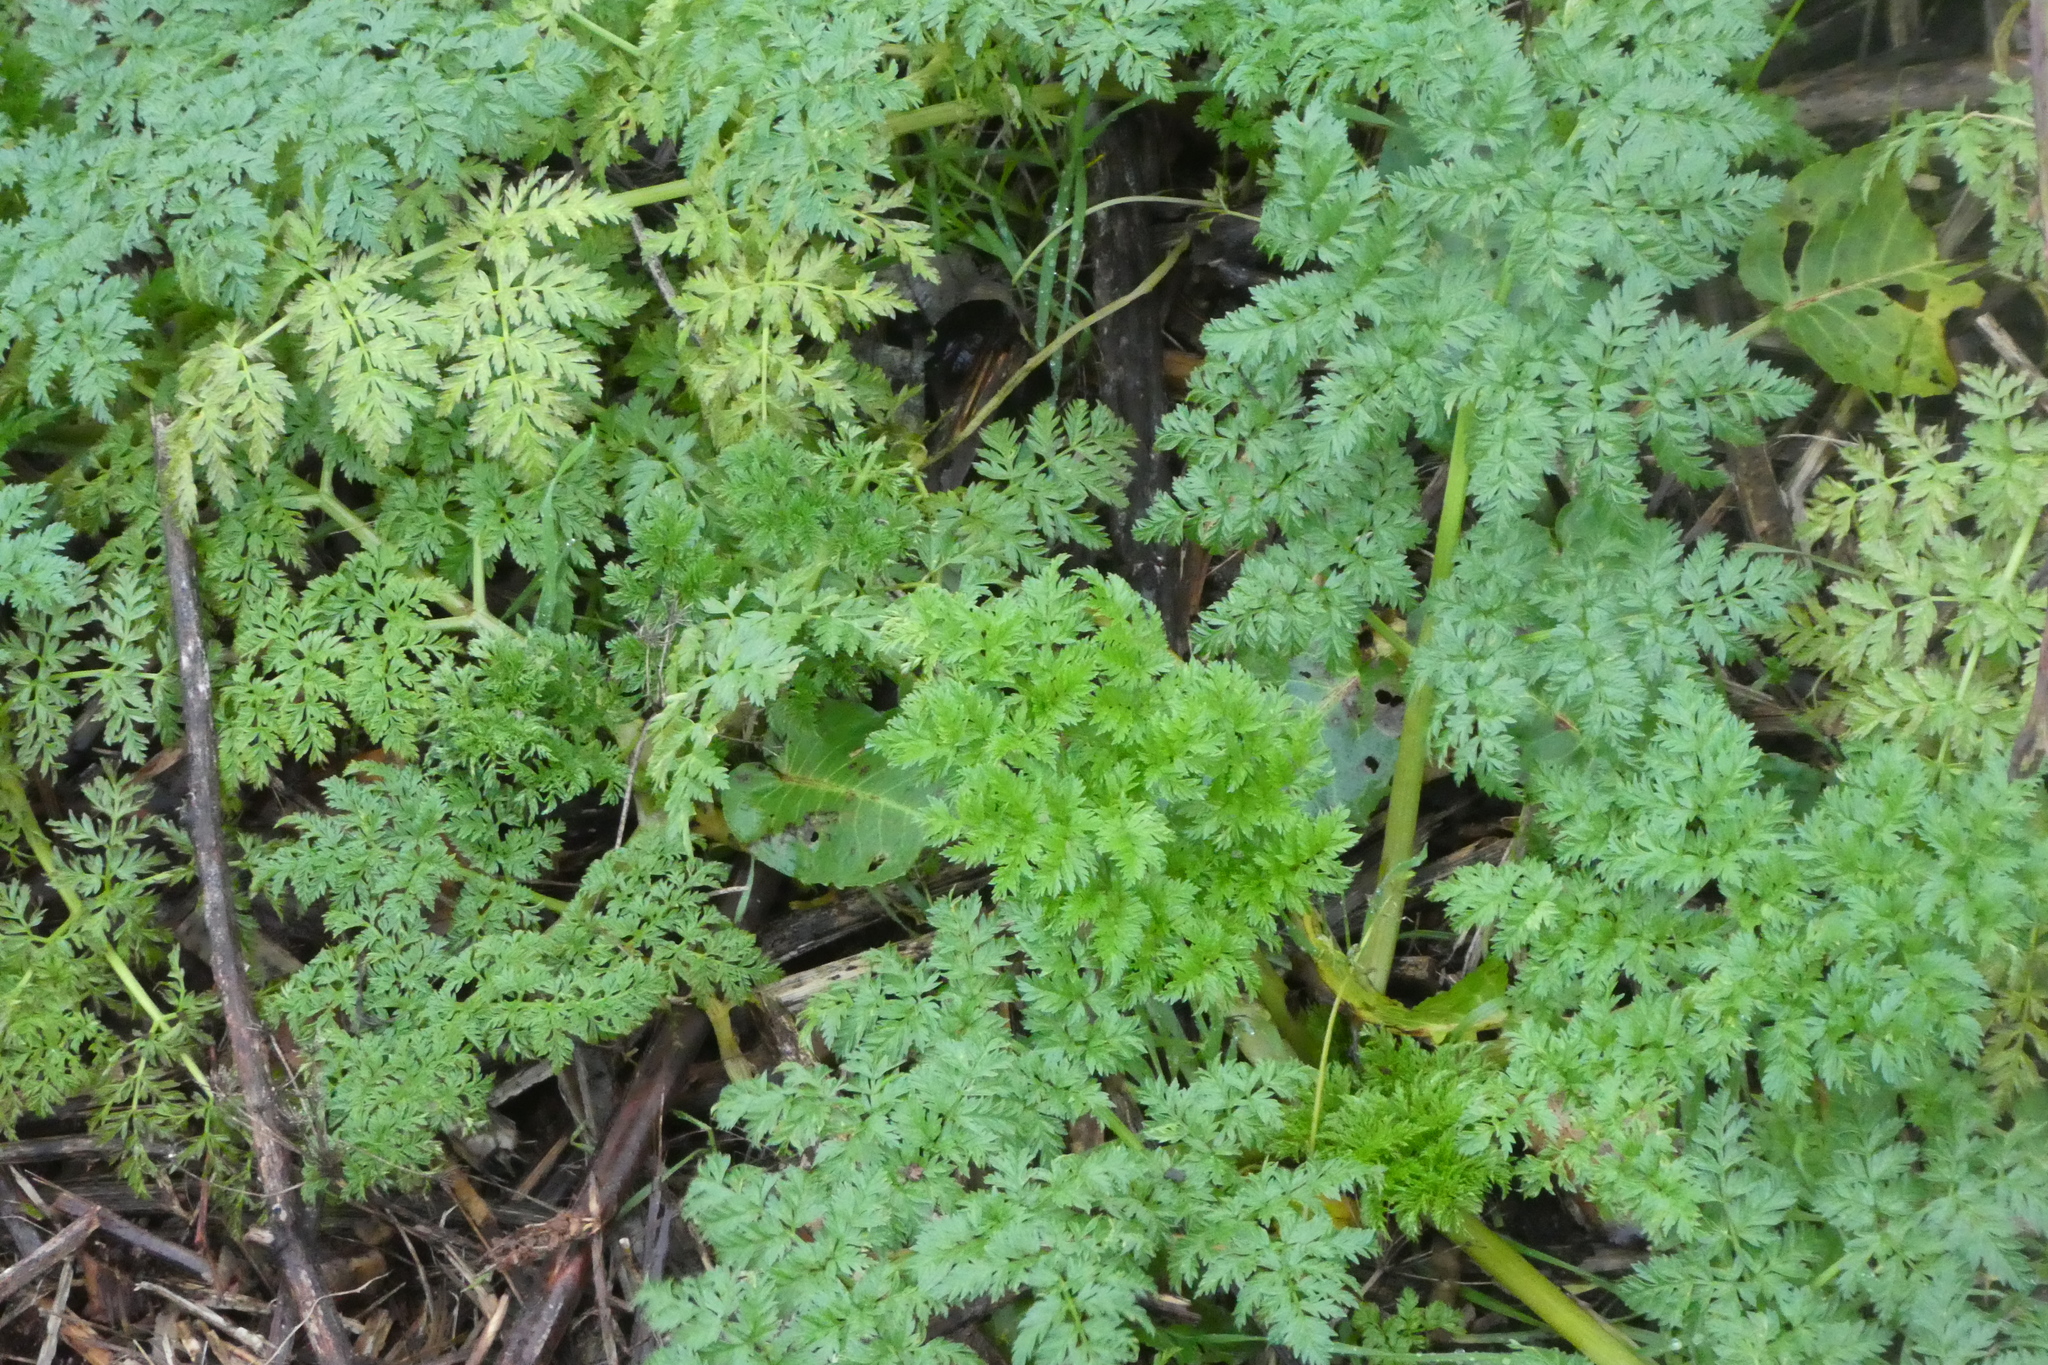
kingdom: Plantae
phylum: Tracheophyta
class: Magnoliopsida
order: Apiales
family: Apiaceae
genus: Conium
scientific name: Conium maculatum
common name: Hemlock
